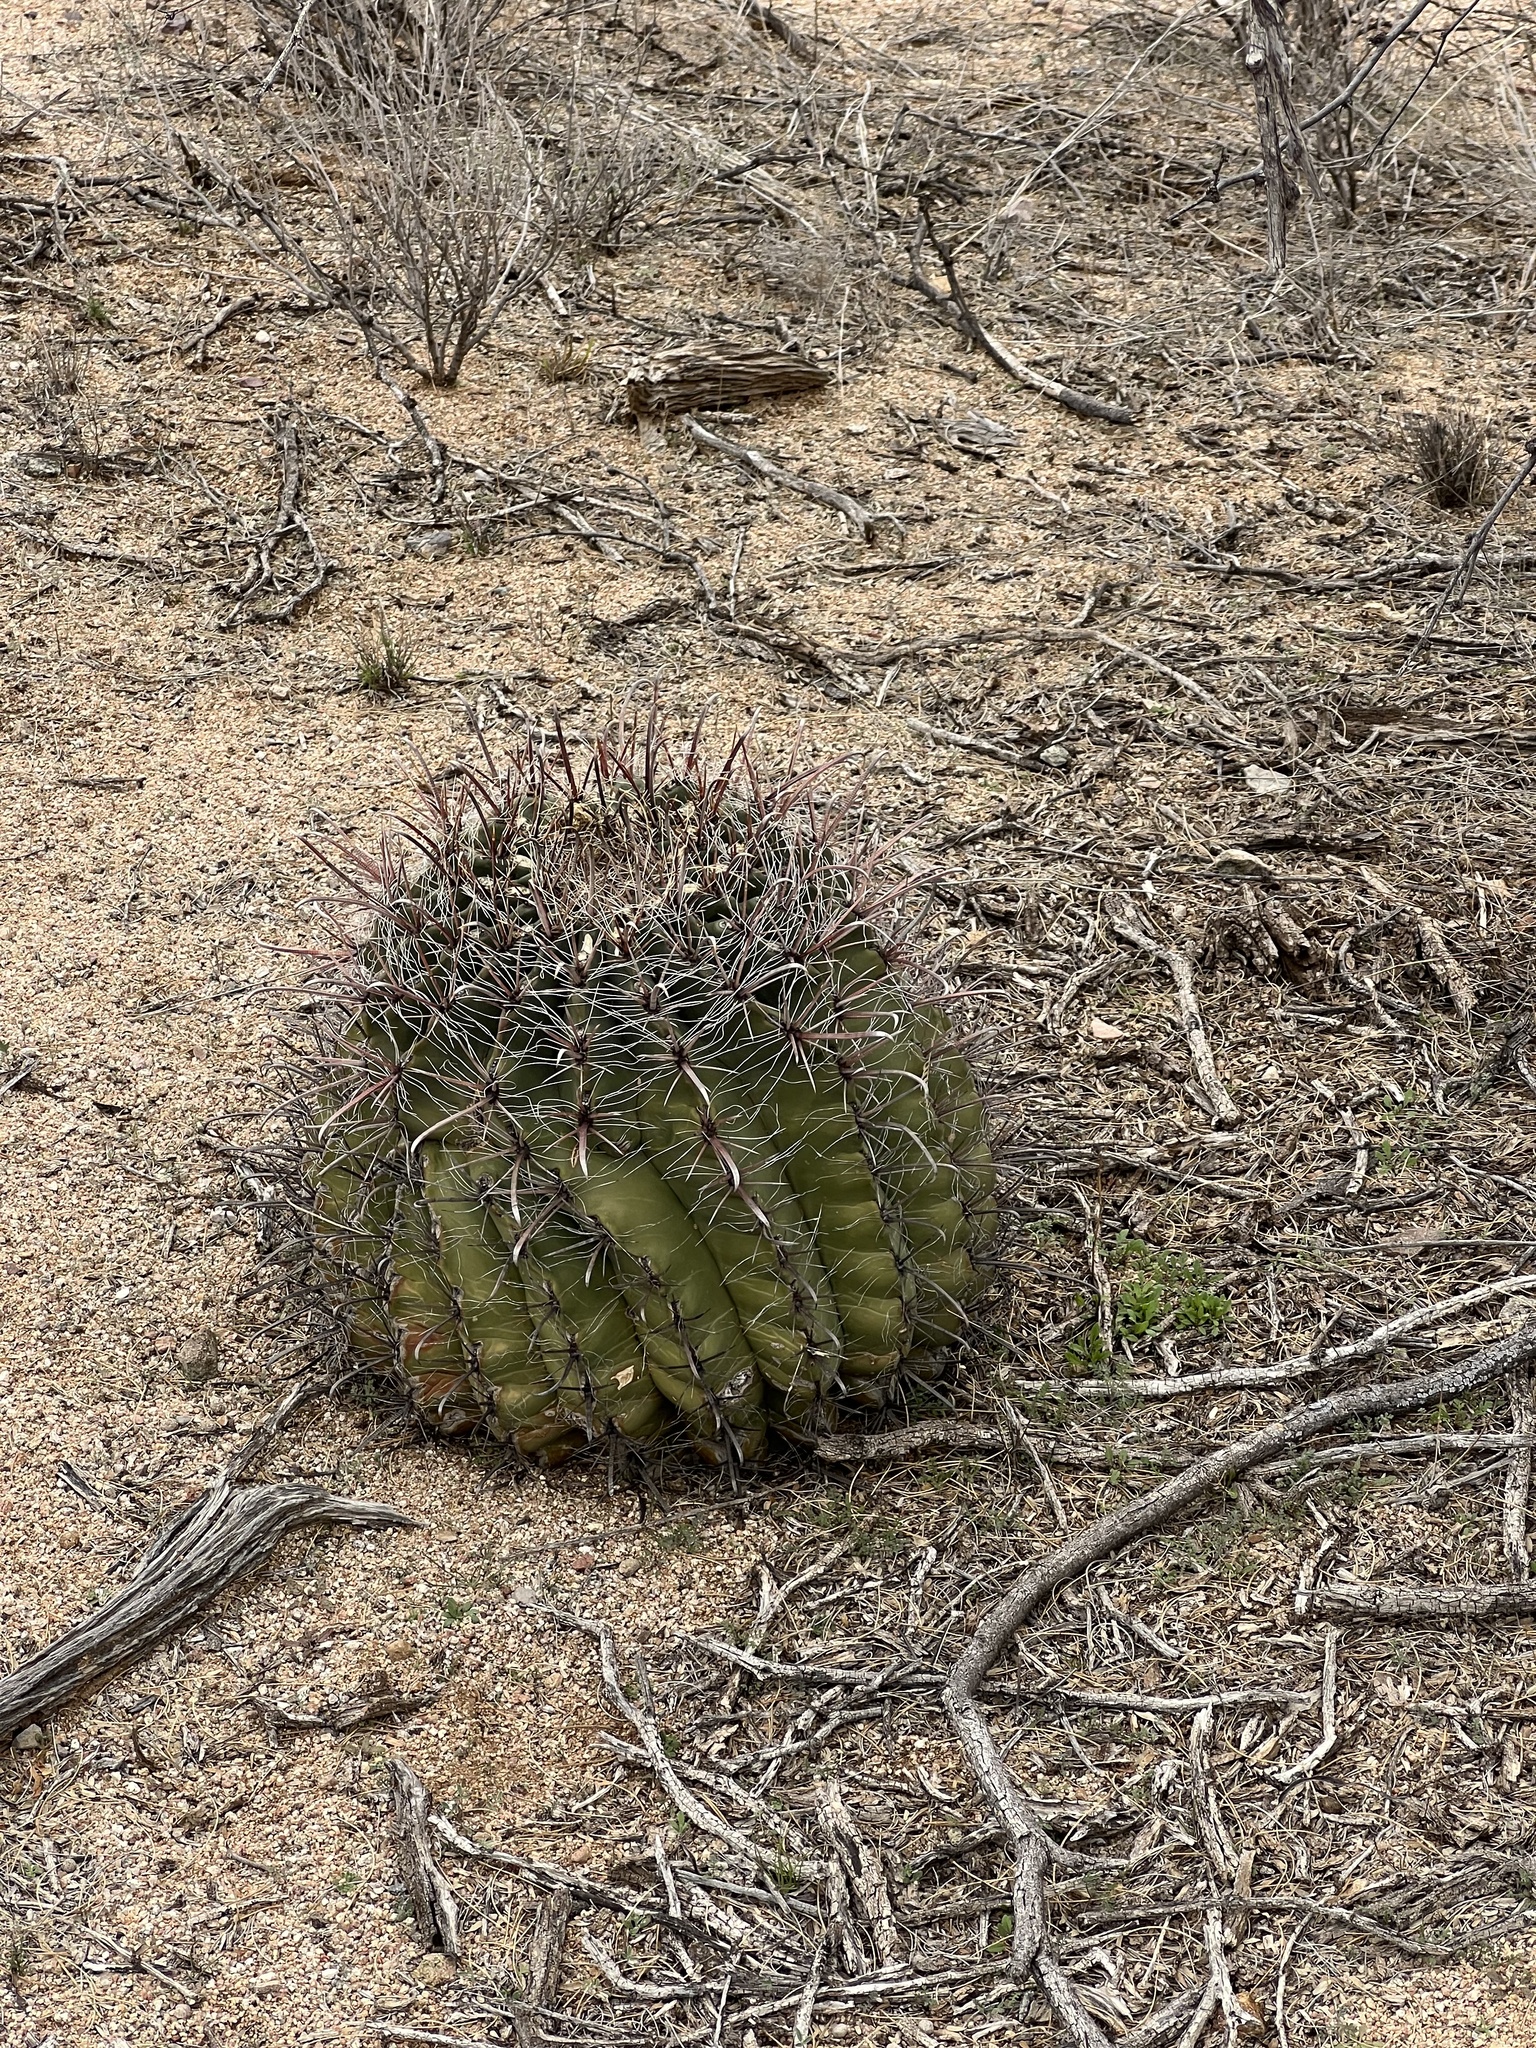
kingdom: Plantae
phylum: Tracheophyta
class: Magnoliopsida
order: Caryophyllales
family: Cactaceae
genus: Ferocactus
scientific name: Ferocactus wislizeni
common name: Candy barrel cactus
